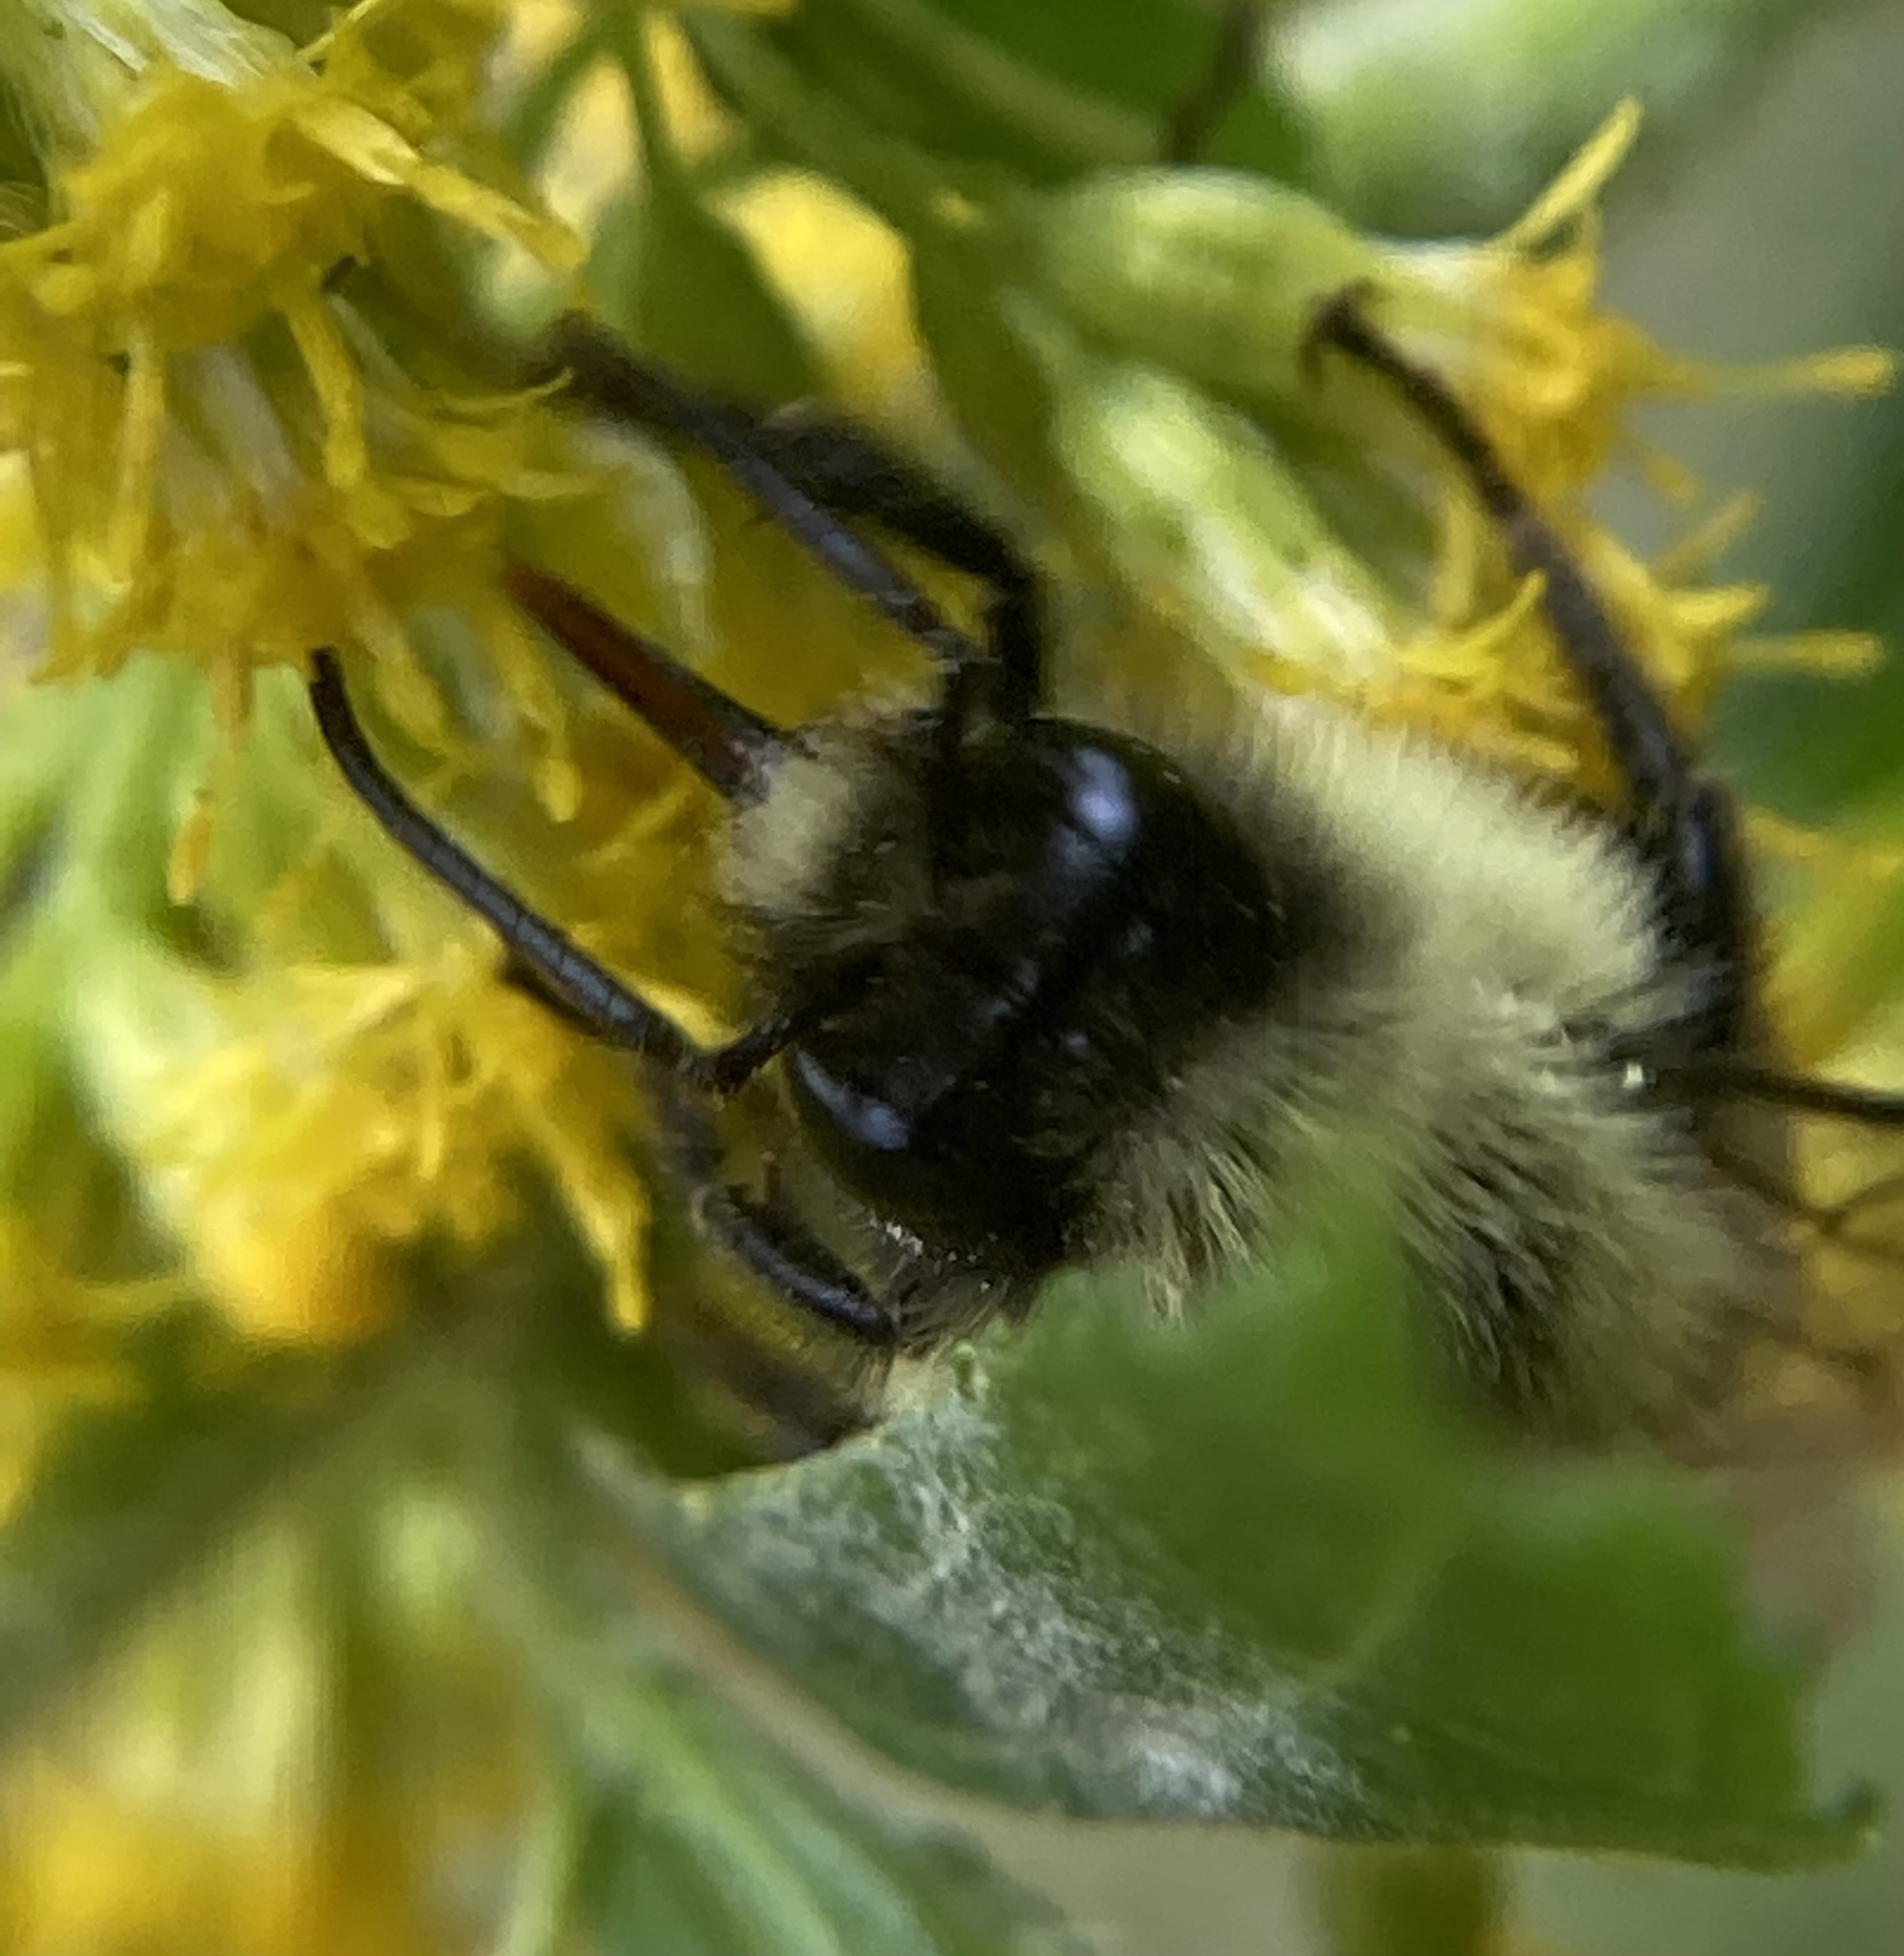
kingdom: Animalia
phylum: Arthropoda
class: Insecta
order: Hymenoptera
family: Apidae
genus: Bombus
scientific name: Bombus impatiens
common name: Common eastern bumble bee
